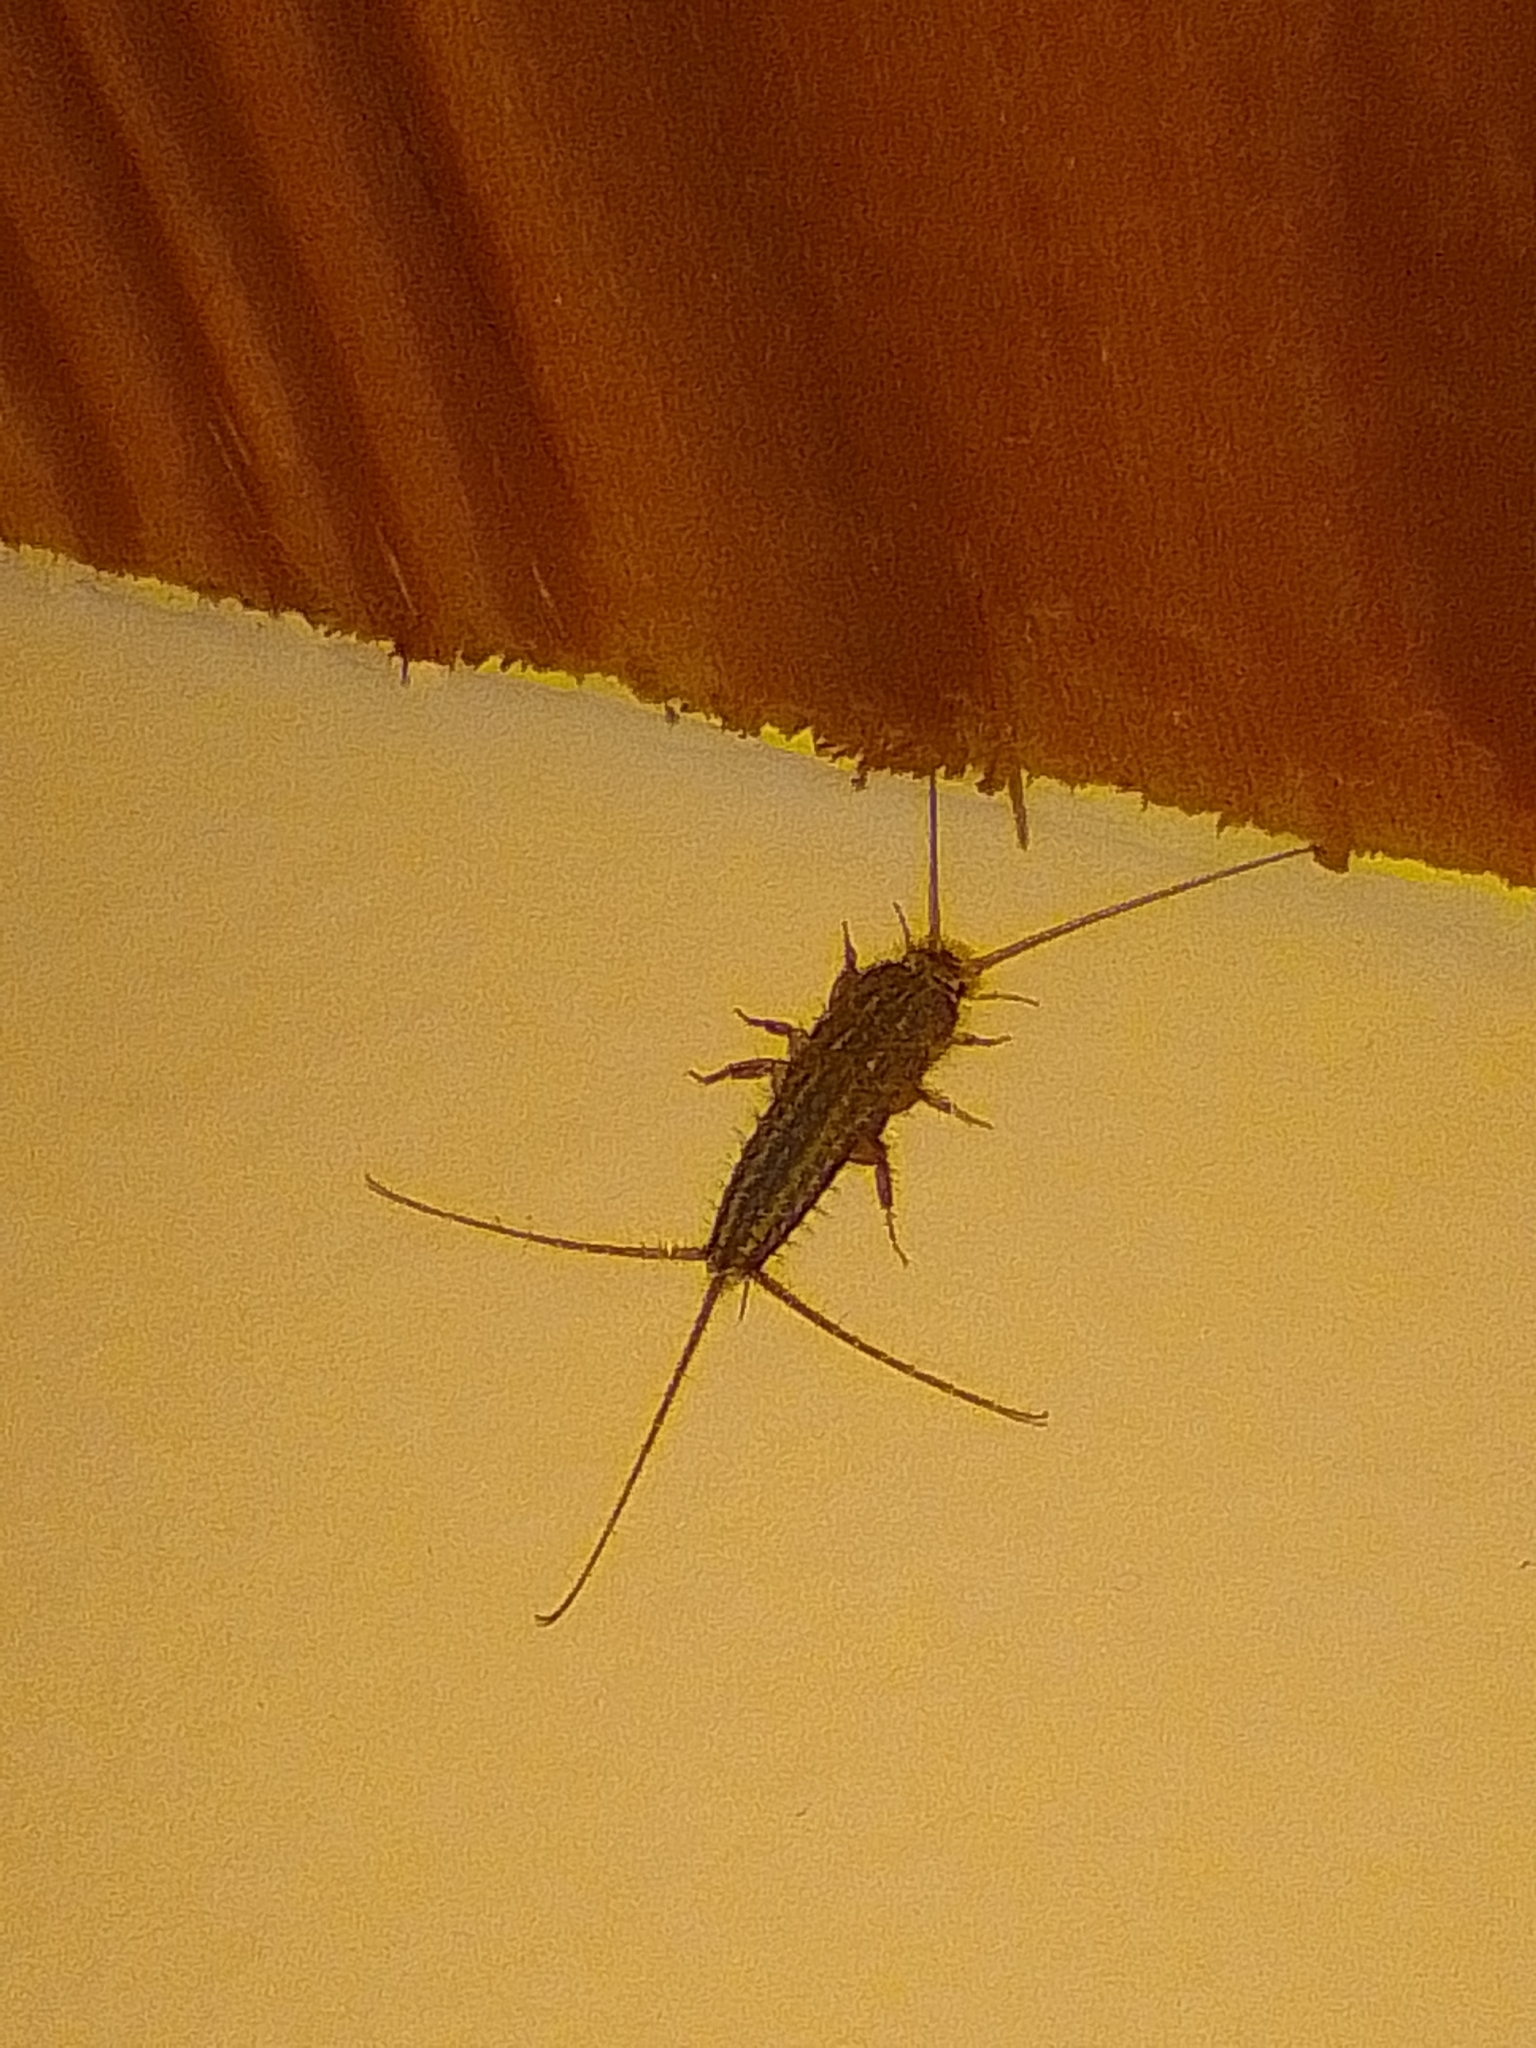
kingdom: Animalia
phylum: Arthropoda
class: Insecta
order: Zygentoma
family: Lepismatidae
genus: Ctenolepisma
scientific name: Ctenolepisma lineata
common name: Four-lined silverfish
